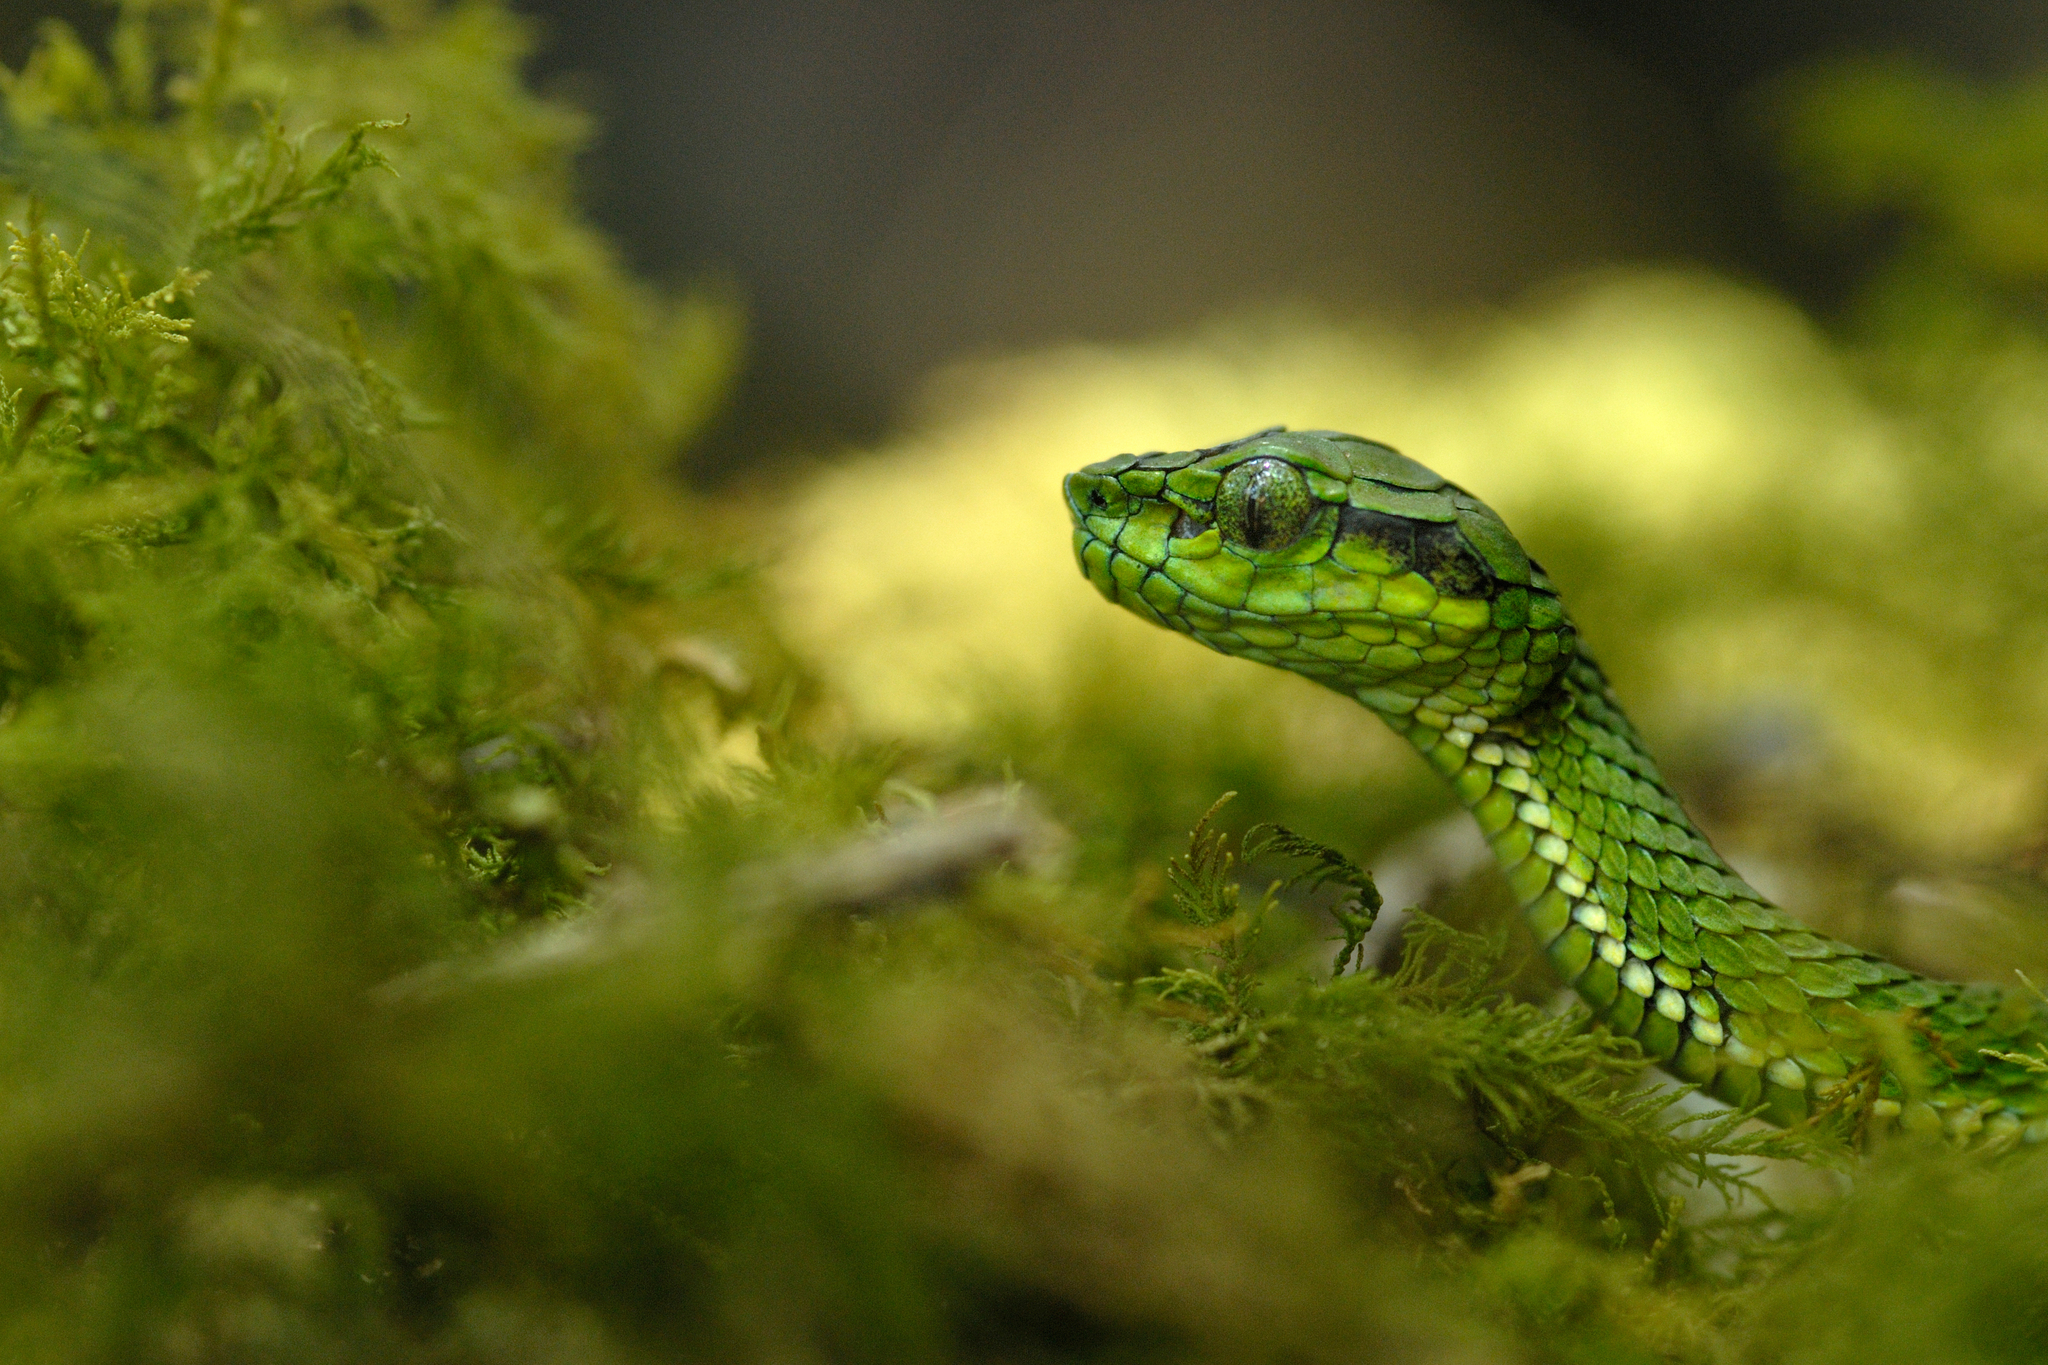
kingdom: Animalia
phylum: Chordata
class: Squamata
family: Viperidae
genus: Craspedocephalus
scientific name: Craspedocephalus macrolepis
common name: Large-scaled pit viper
